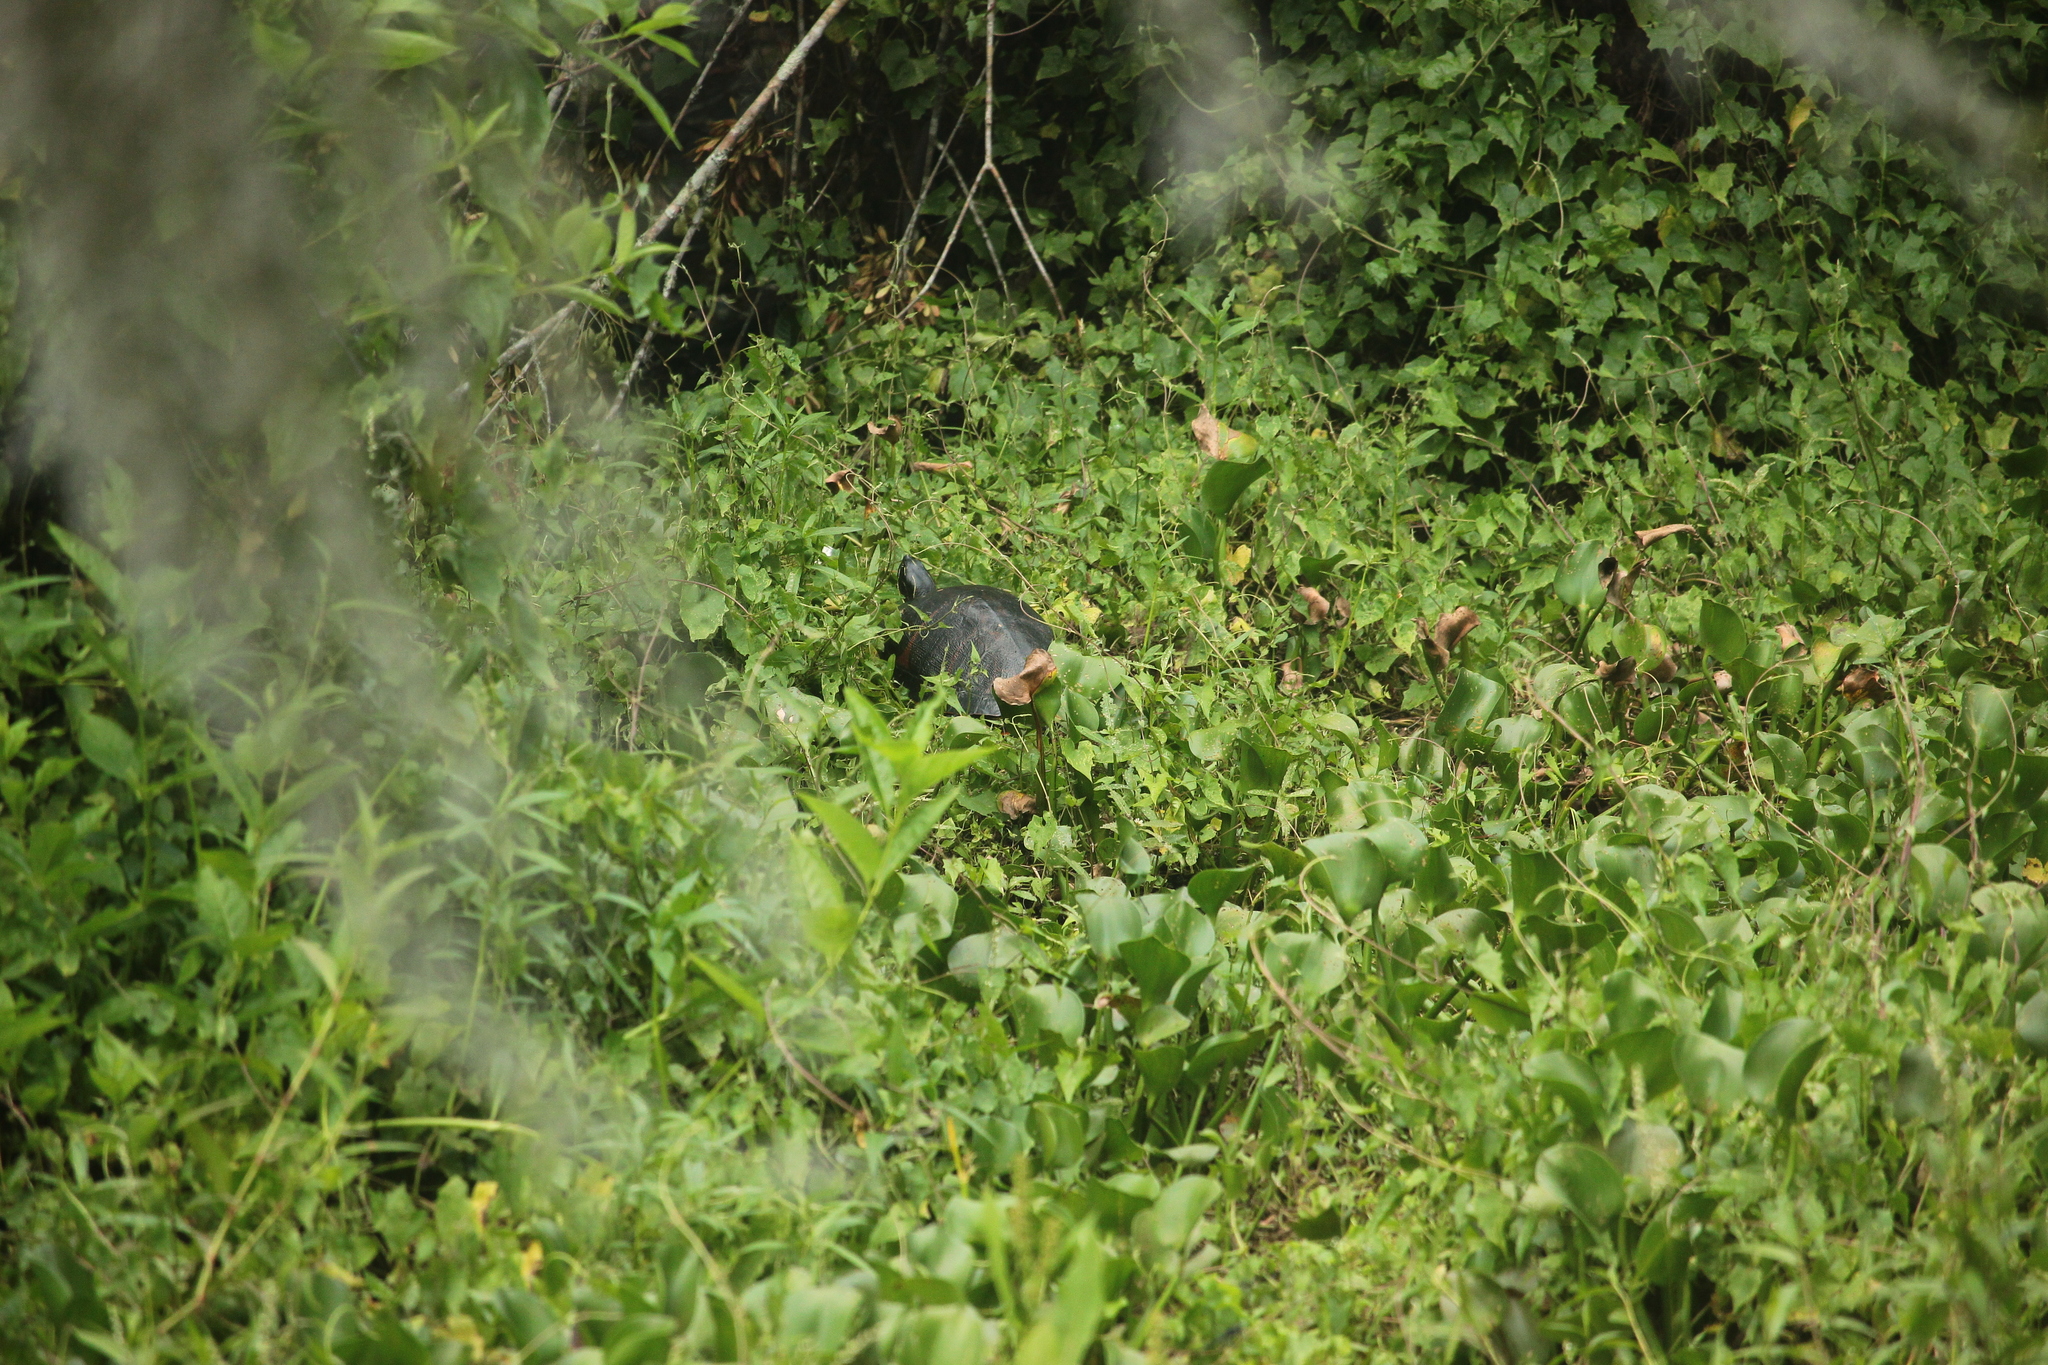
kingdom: Animalia
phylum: Chordata
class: Testudines
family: Emydidae
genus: Pseudemys
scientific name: Pseudemys nelsoni
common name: Florida red-bellied turtle
